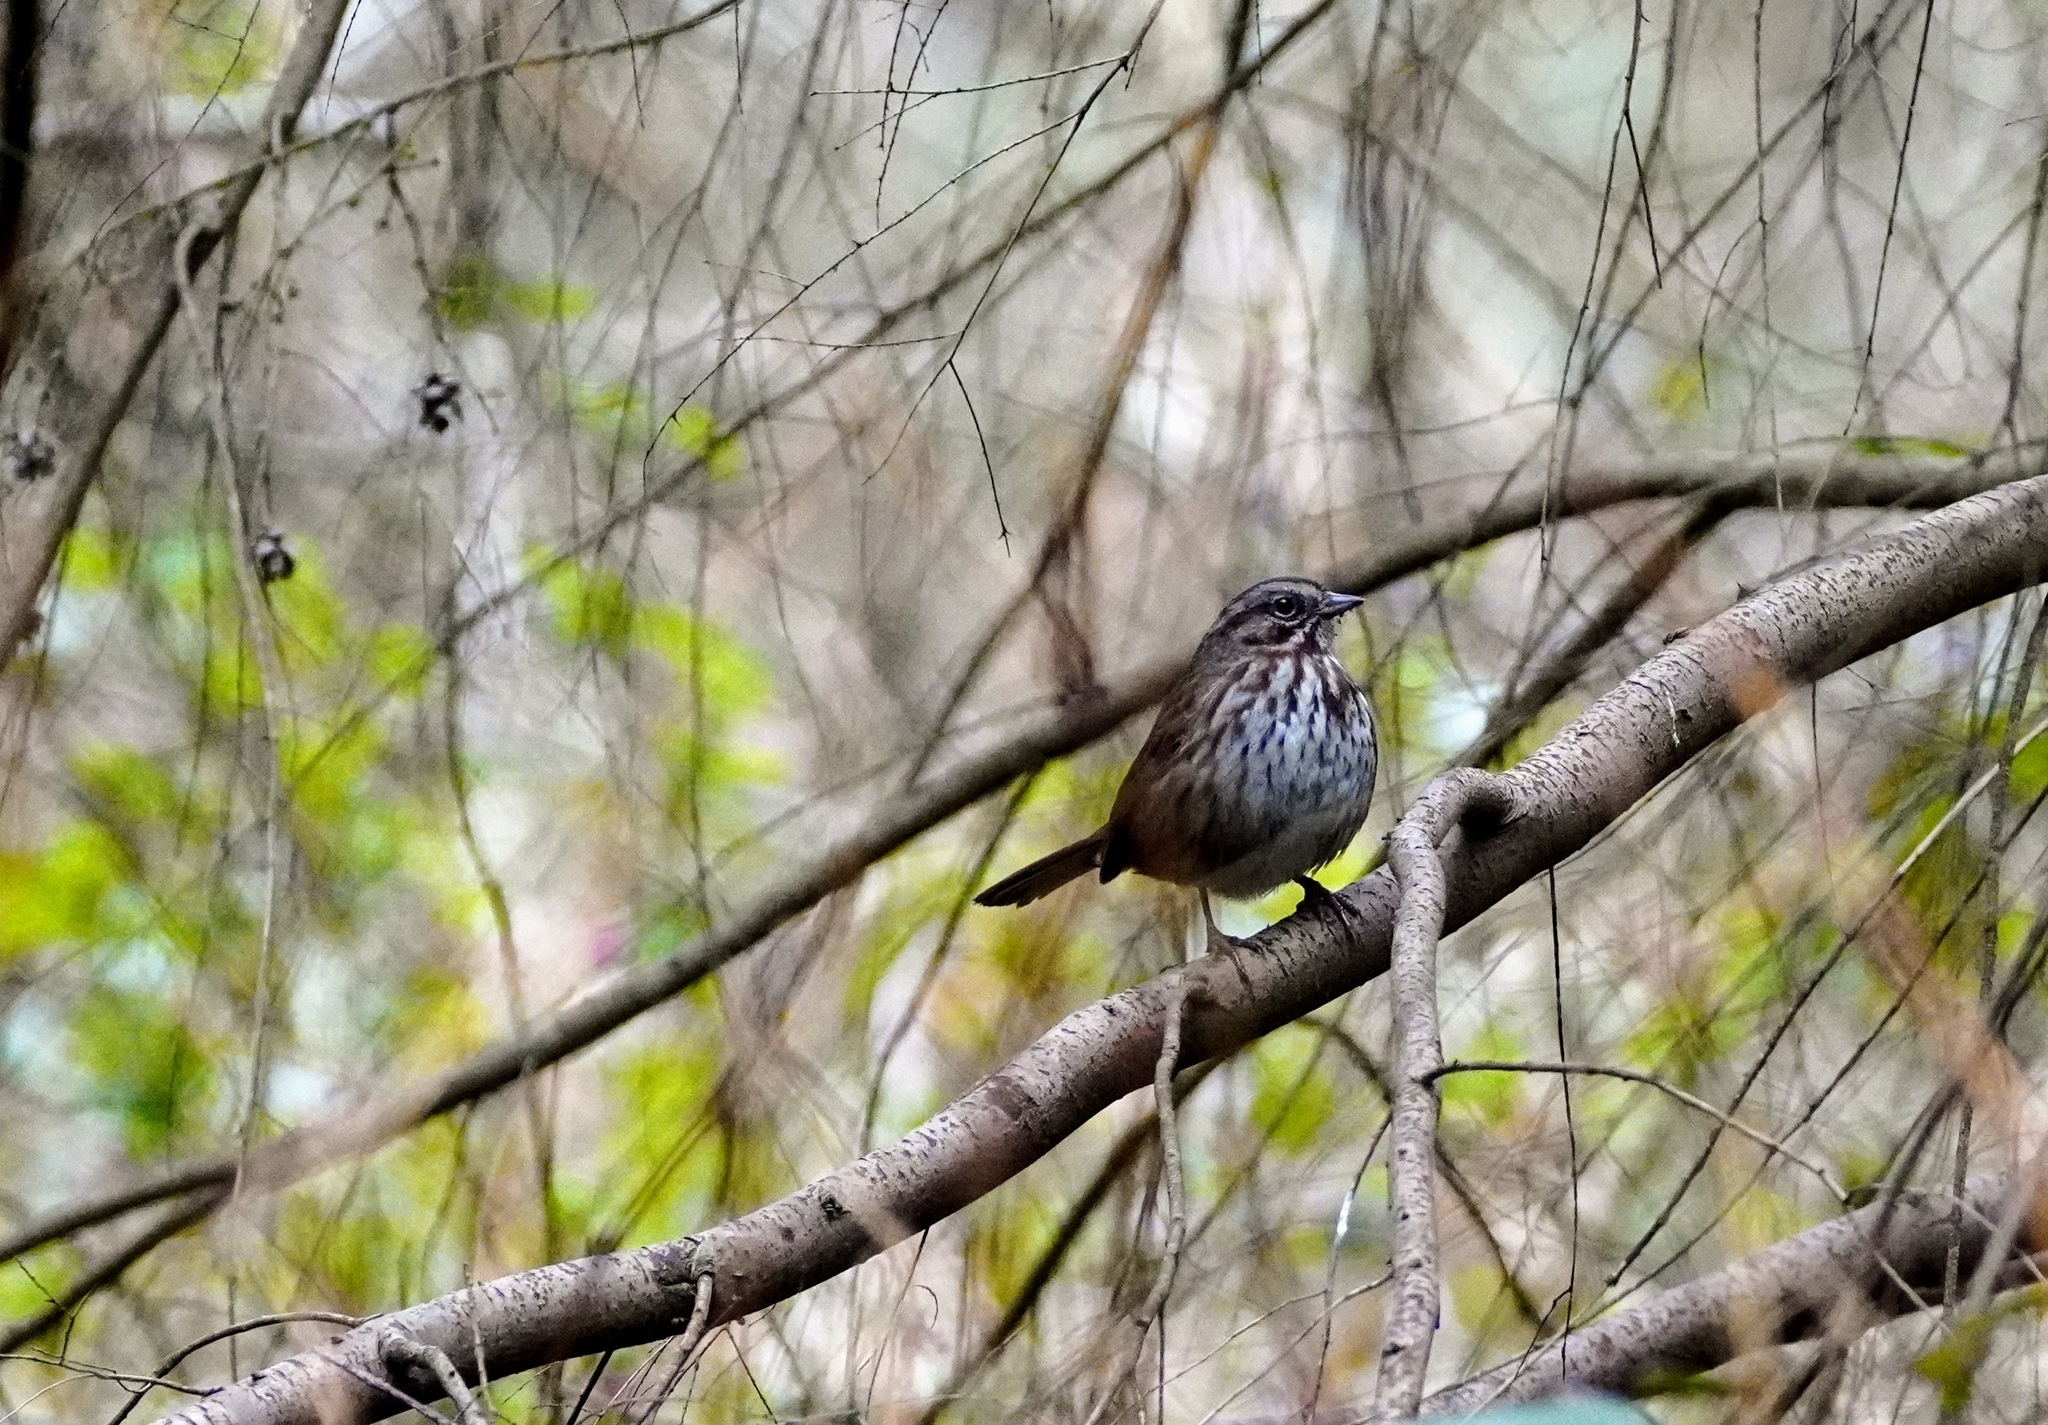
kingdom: Animalia
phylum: Chordata
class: Aves
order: Passeriformes
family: Passerellidae
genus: Melospiza
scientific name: Melospiza melodia
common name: Song sparrow
